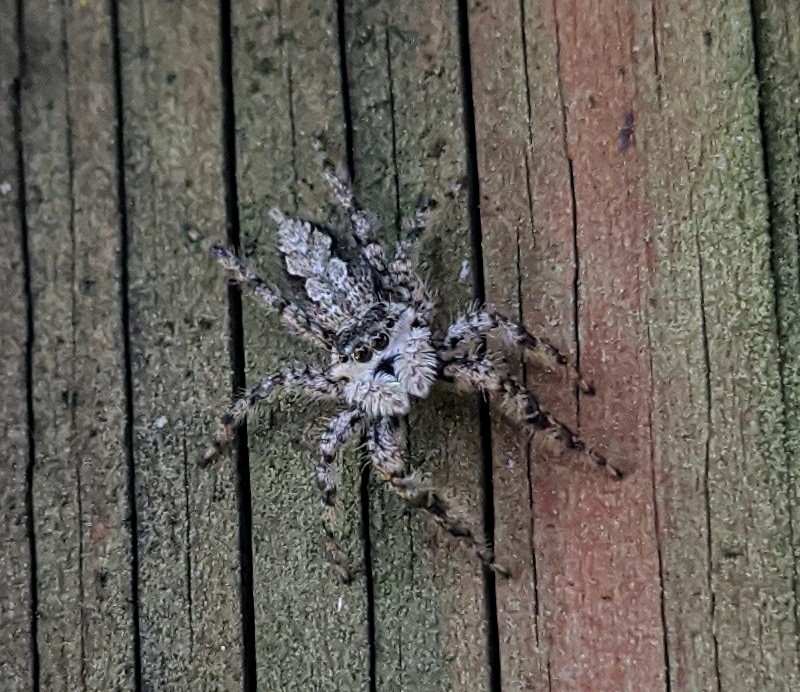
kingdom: Animalia
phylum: Arthropoda
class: Arachnida
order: Araneae
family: Salticidae
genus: Platycryptus
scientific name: Platycryptus undatus
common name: Tan jumping spider
